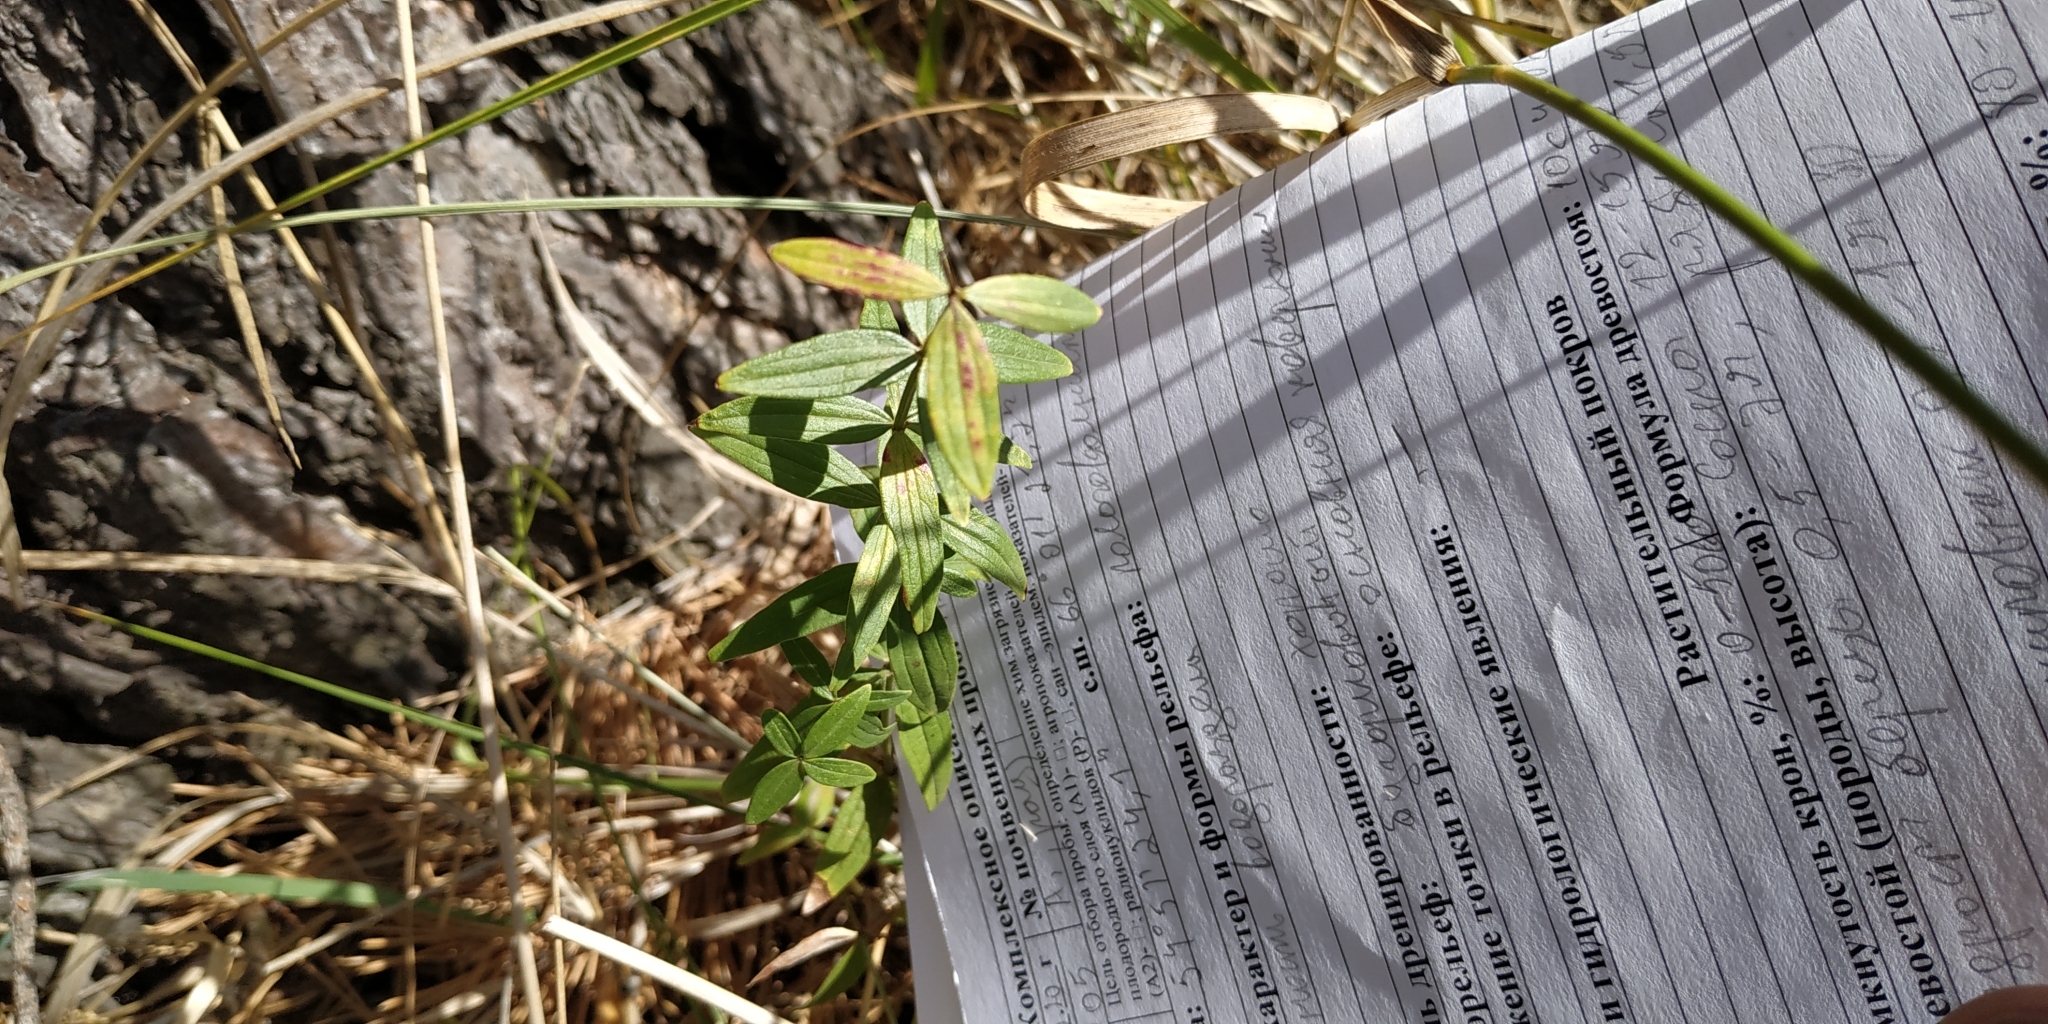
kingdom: Plantae
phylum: Tracheophyta
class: Magnoliopsida
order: Gentianales
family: Rubiaceae
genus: Galium
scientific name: Galium boreale
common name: Northern bedstraw
